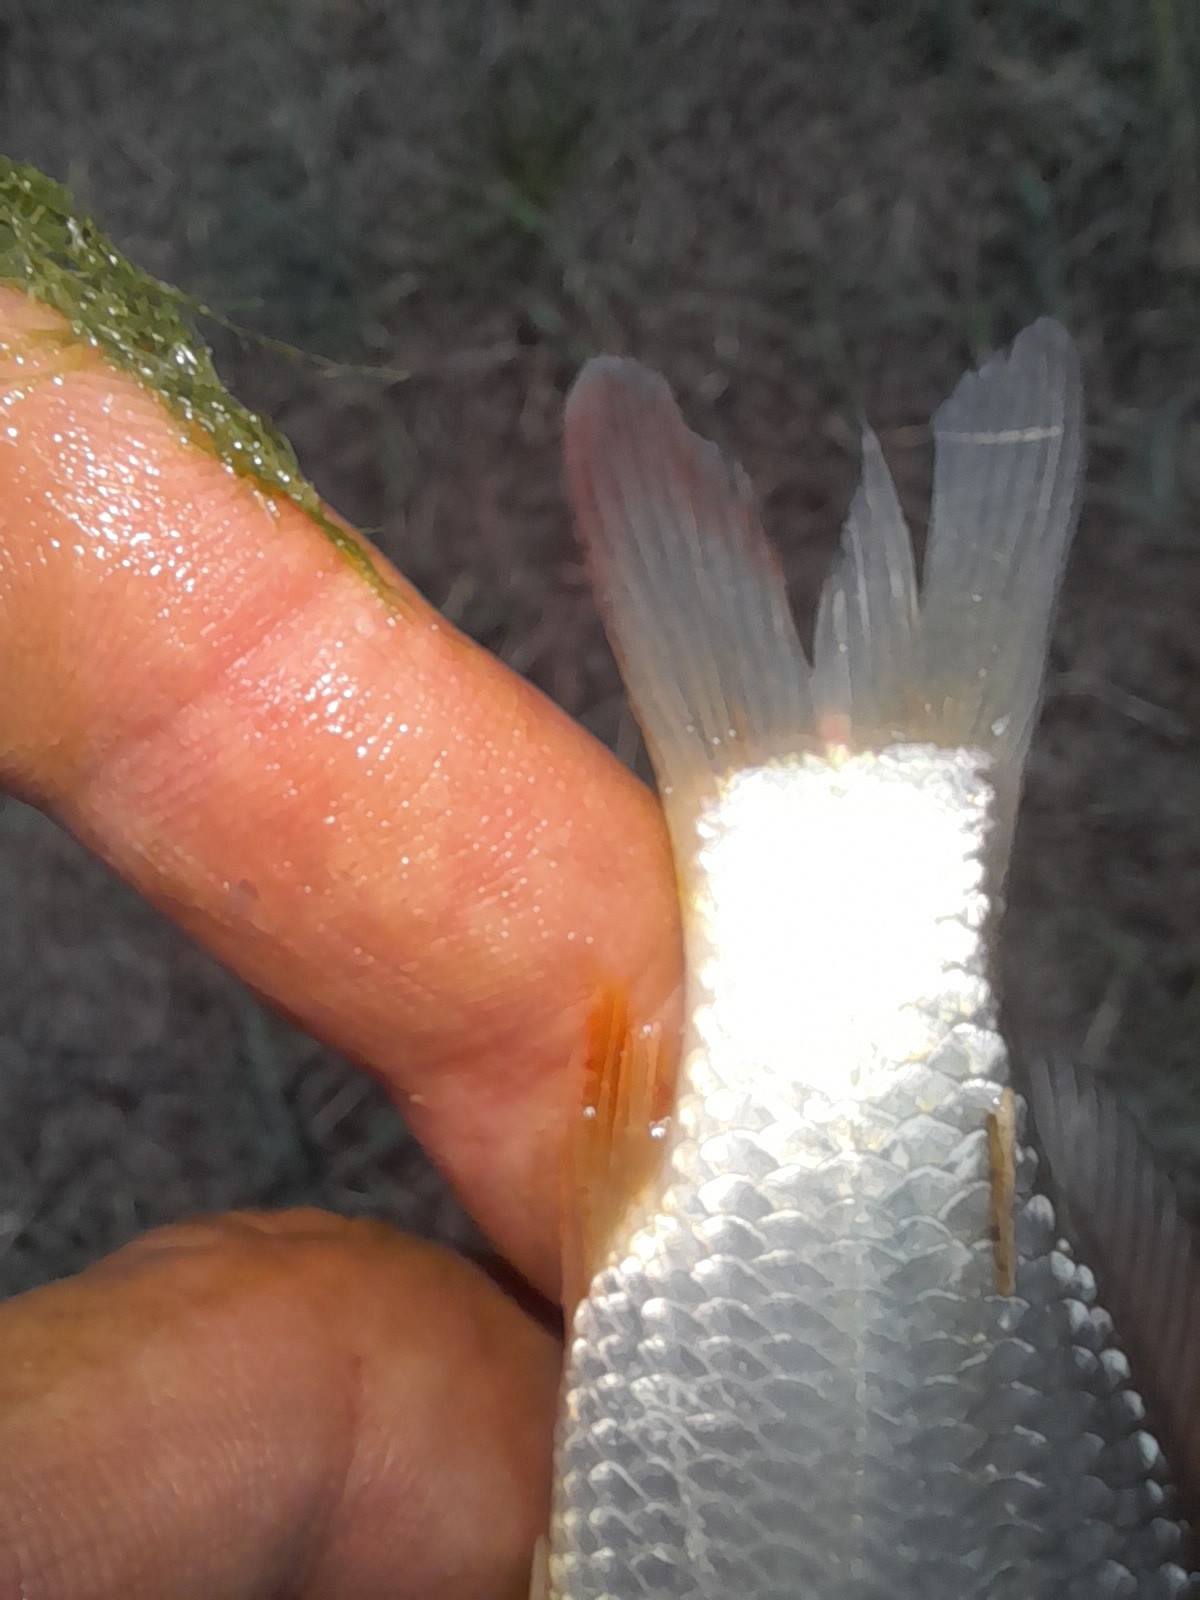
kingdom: Animalia
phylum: Chordata
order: Cypriniformes
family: Cyprinidae
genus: Cyprinus
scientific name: Cyprinus carpio
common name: Common carp
